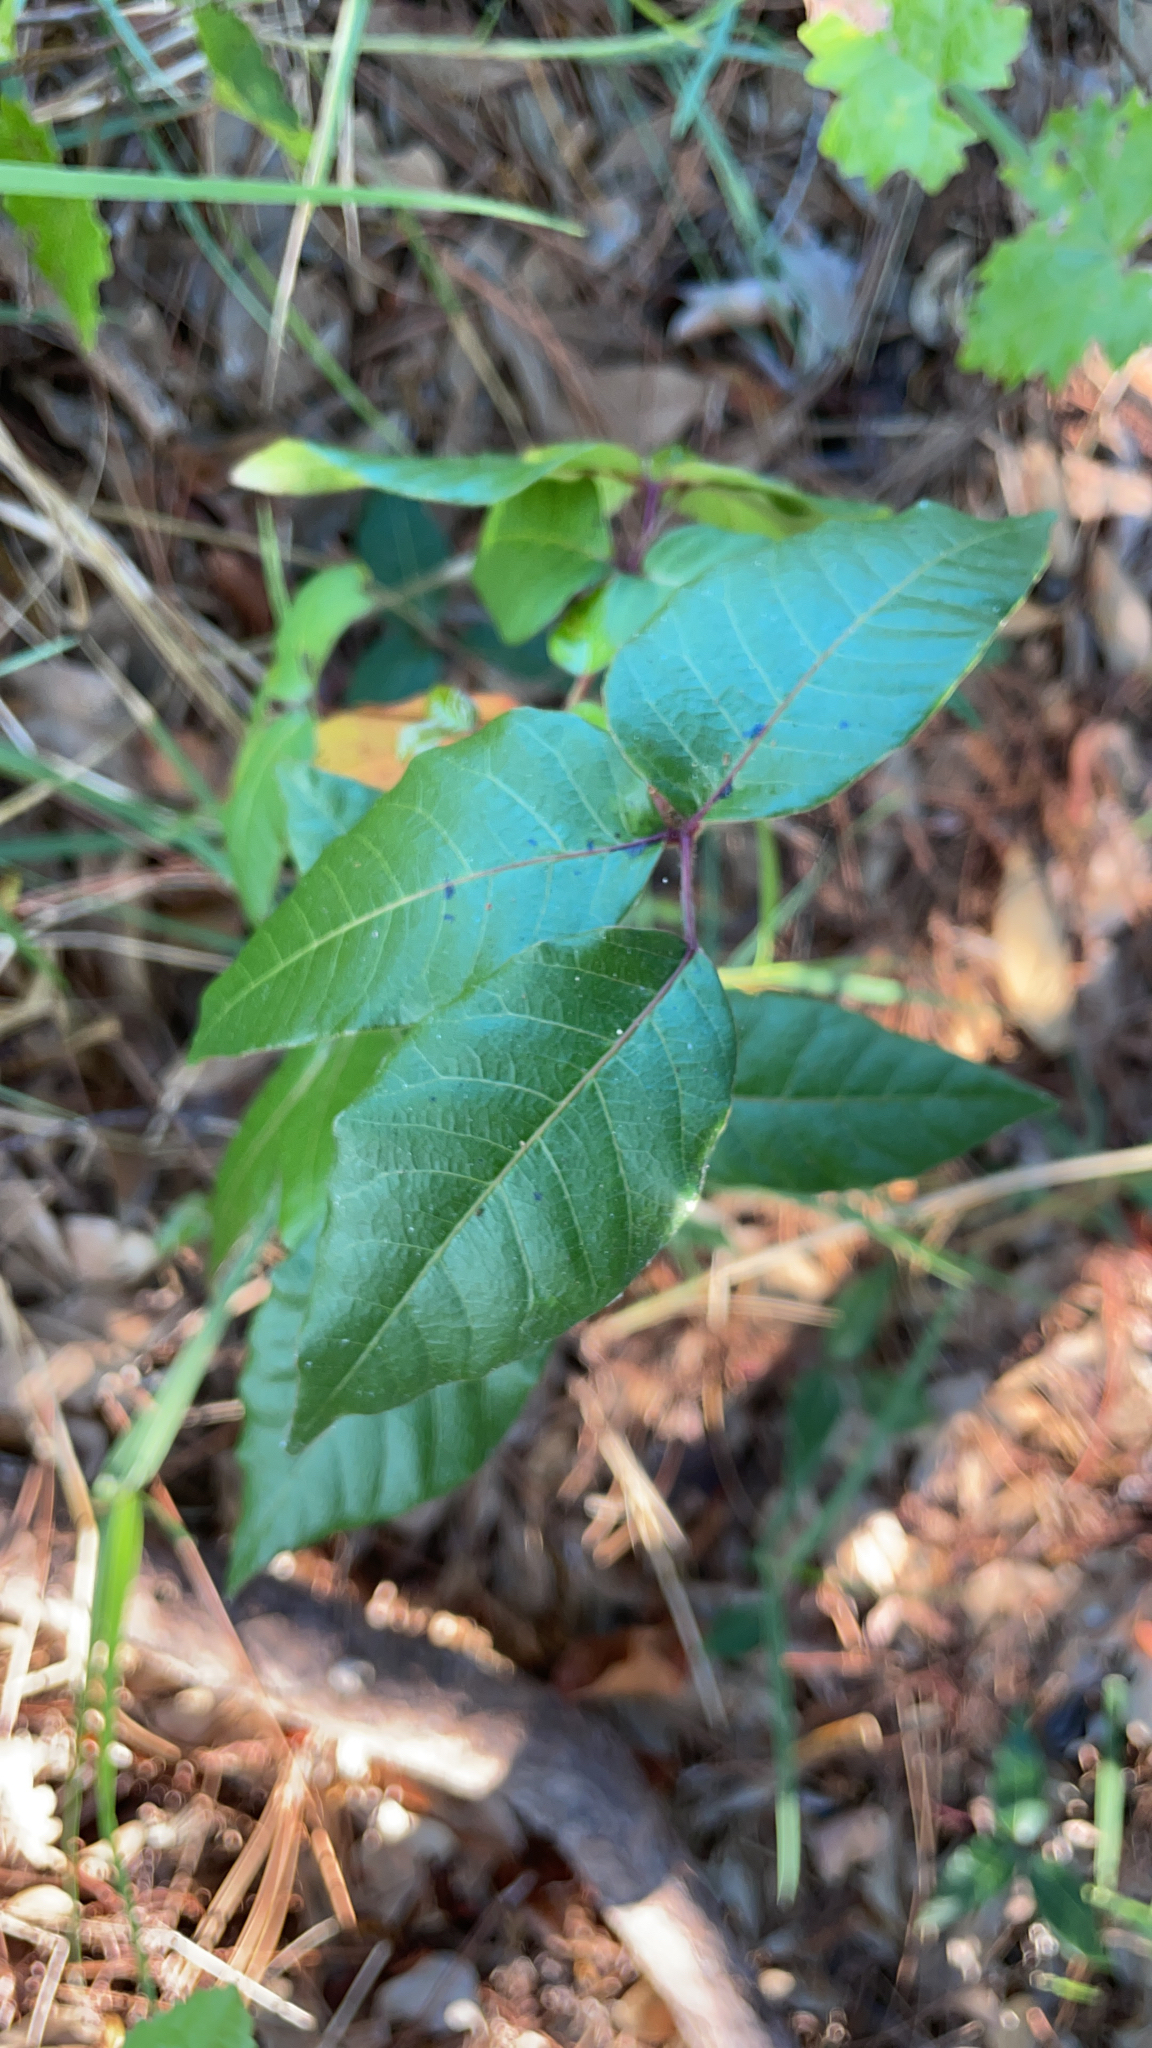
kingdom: Plantae
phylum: Tracheophyta
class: Magnoliopsida
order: Sapindales
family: Anacardiaceae
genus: Toxicodendron
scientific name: Toxicodendron radicans
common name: Poison ivy
